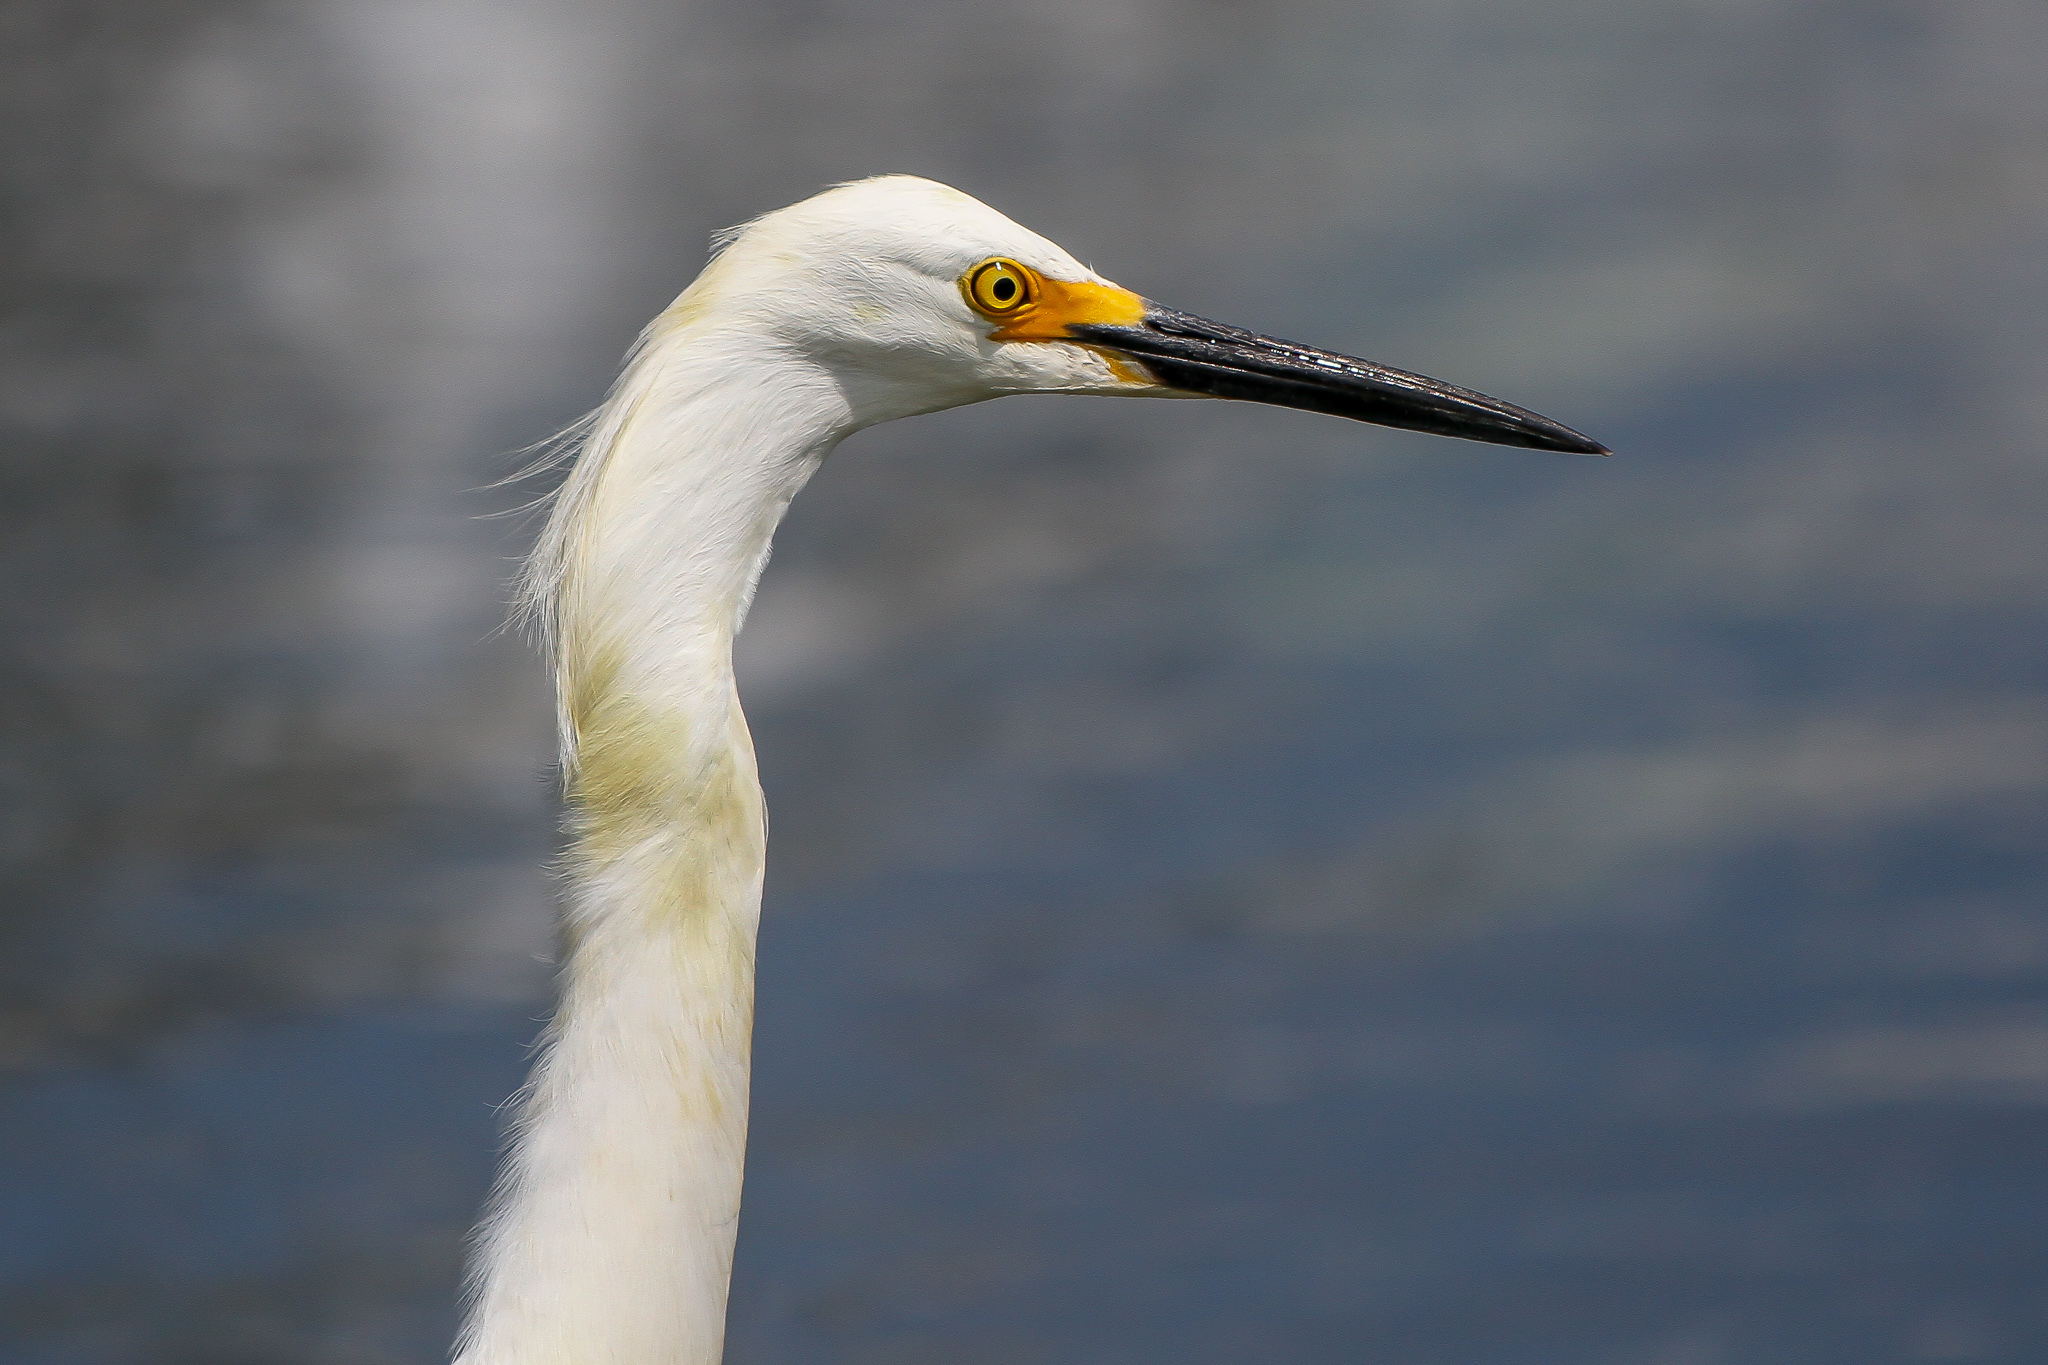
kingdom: Animalia
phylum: Chordata
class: Aves
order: Pelecaniformes
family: Ardeidae
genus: Egretta
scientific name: Egretta thula
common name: Snowy egret
